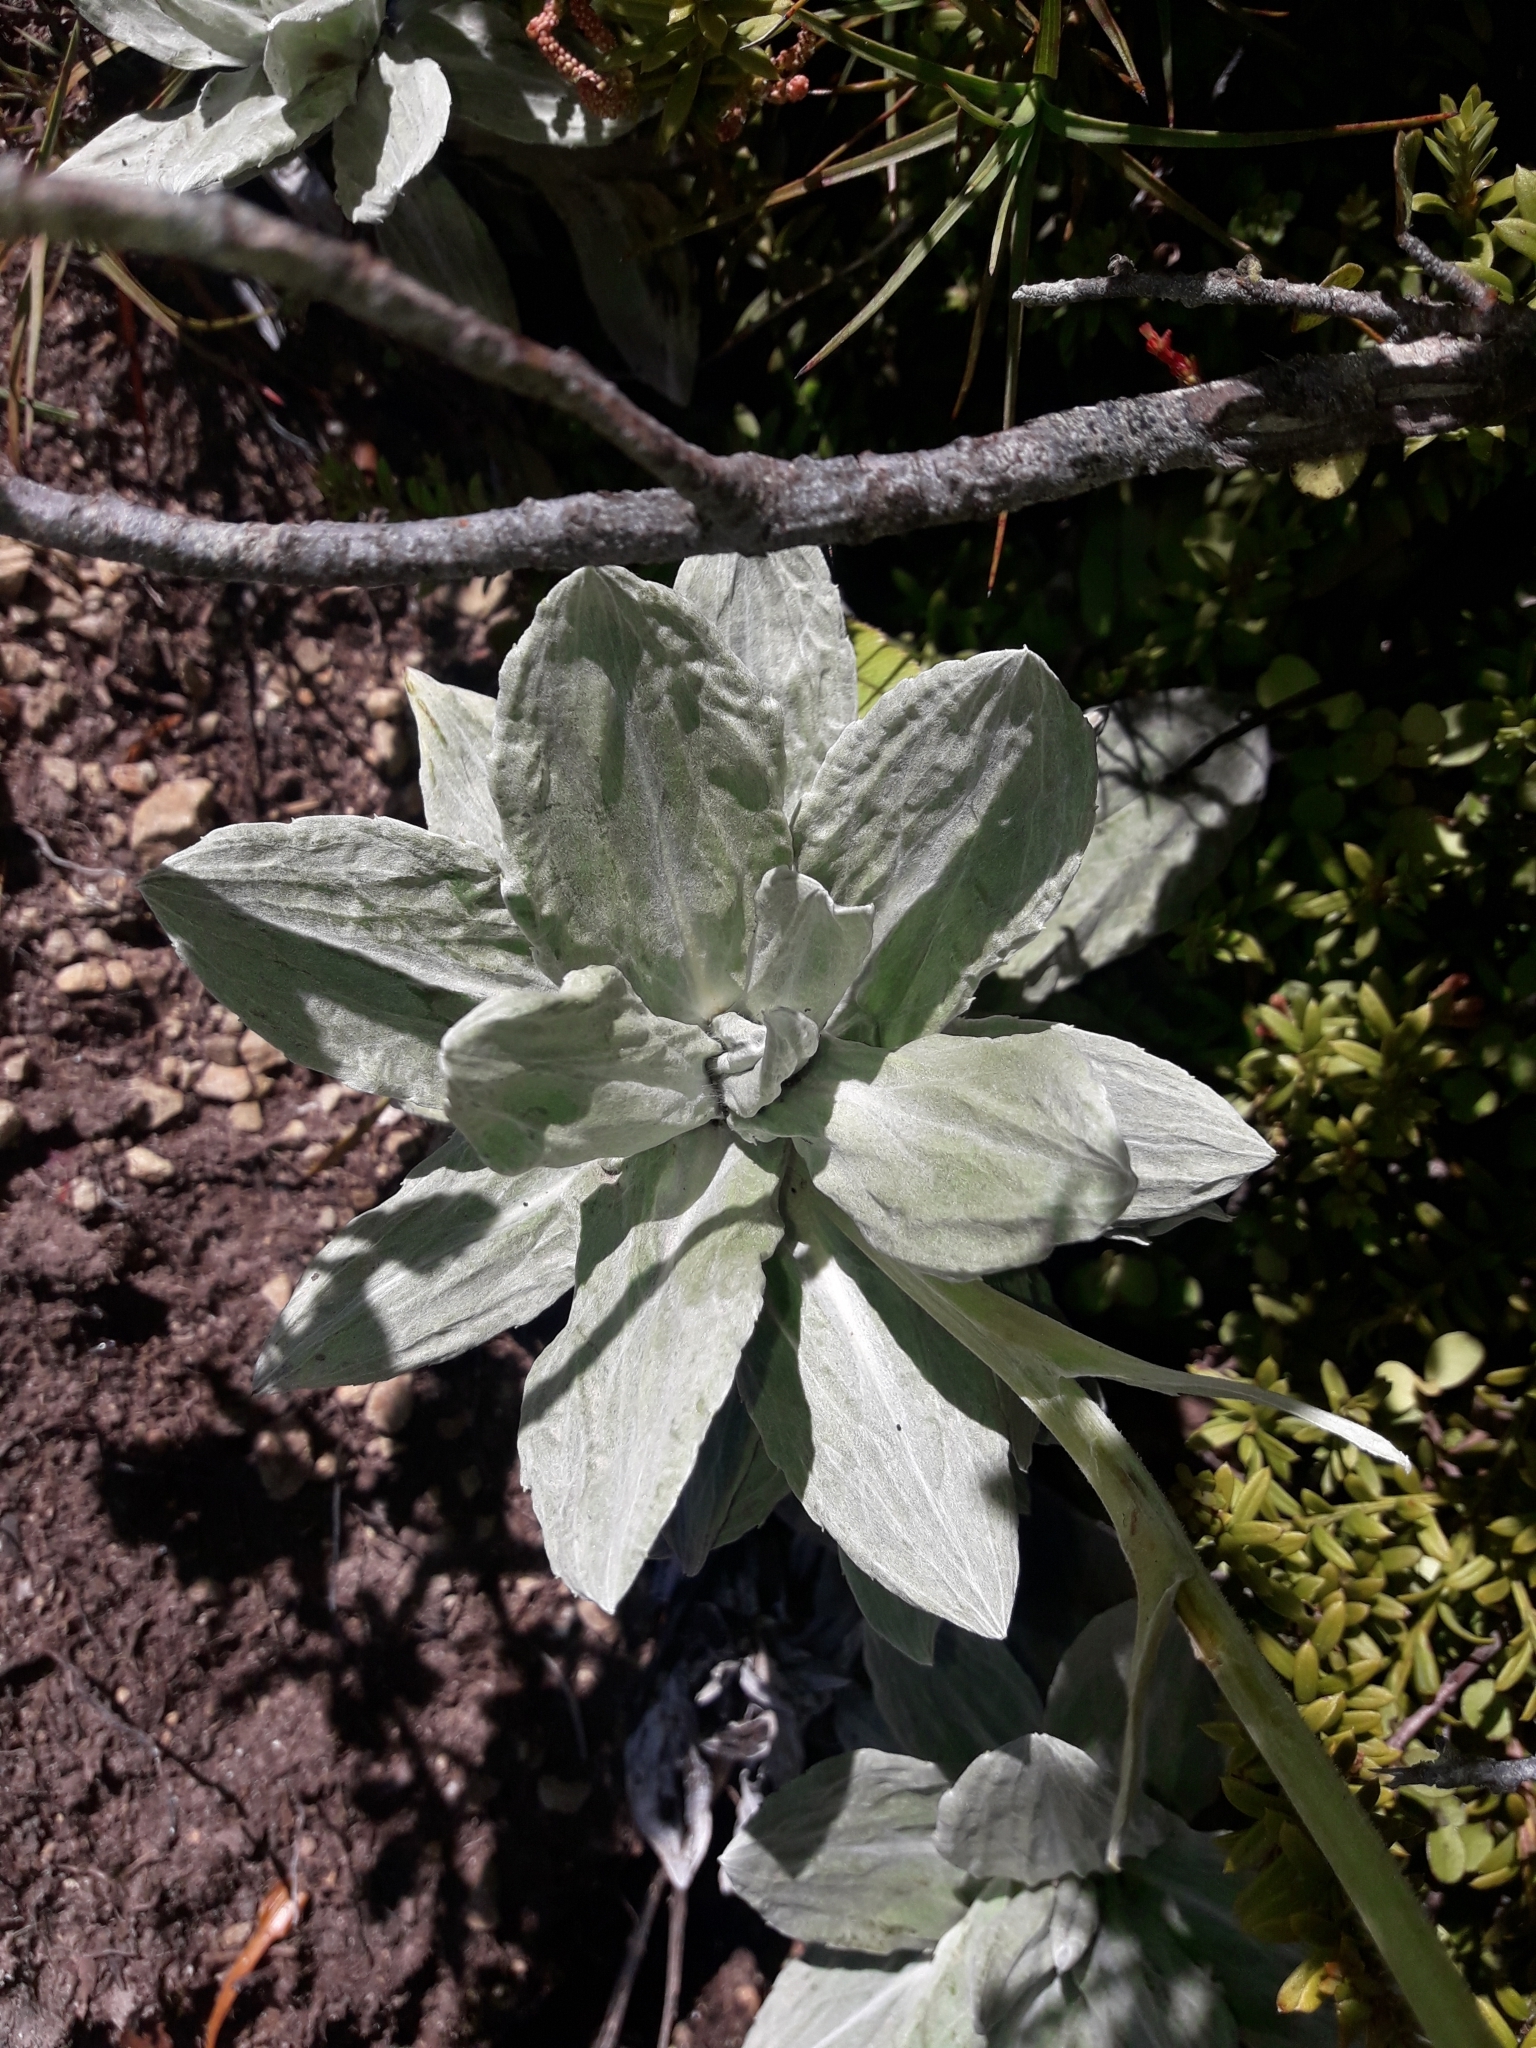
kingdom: Plantae
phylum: Tracheophyta
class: Magnoliopsida
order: Asterales
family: Asteraceae
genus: Celmisia
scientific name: Celmisia incana
